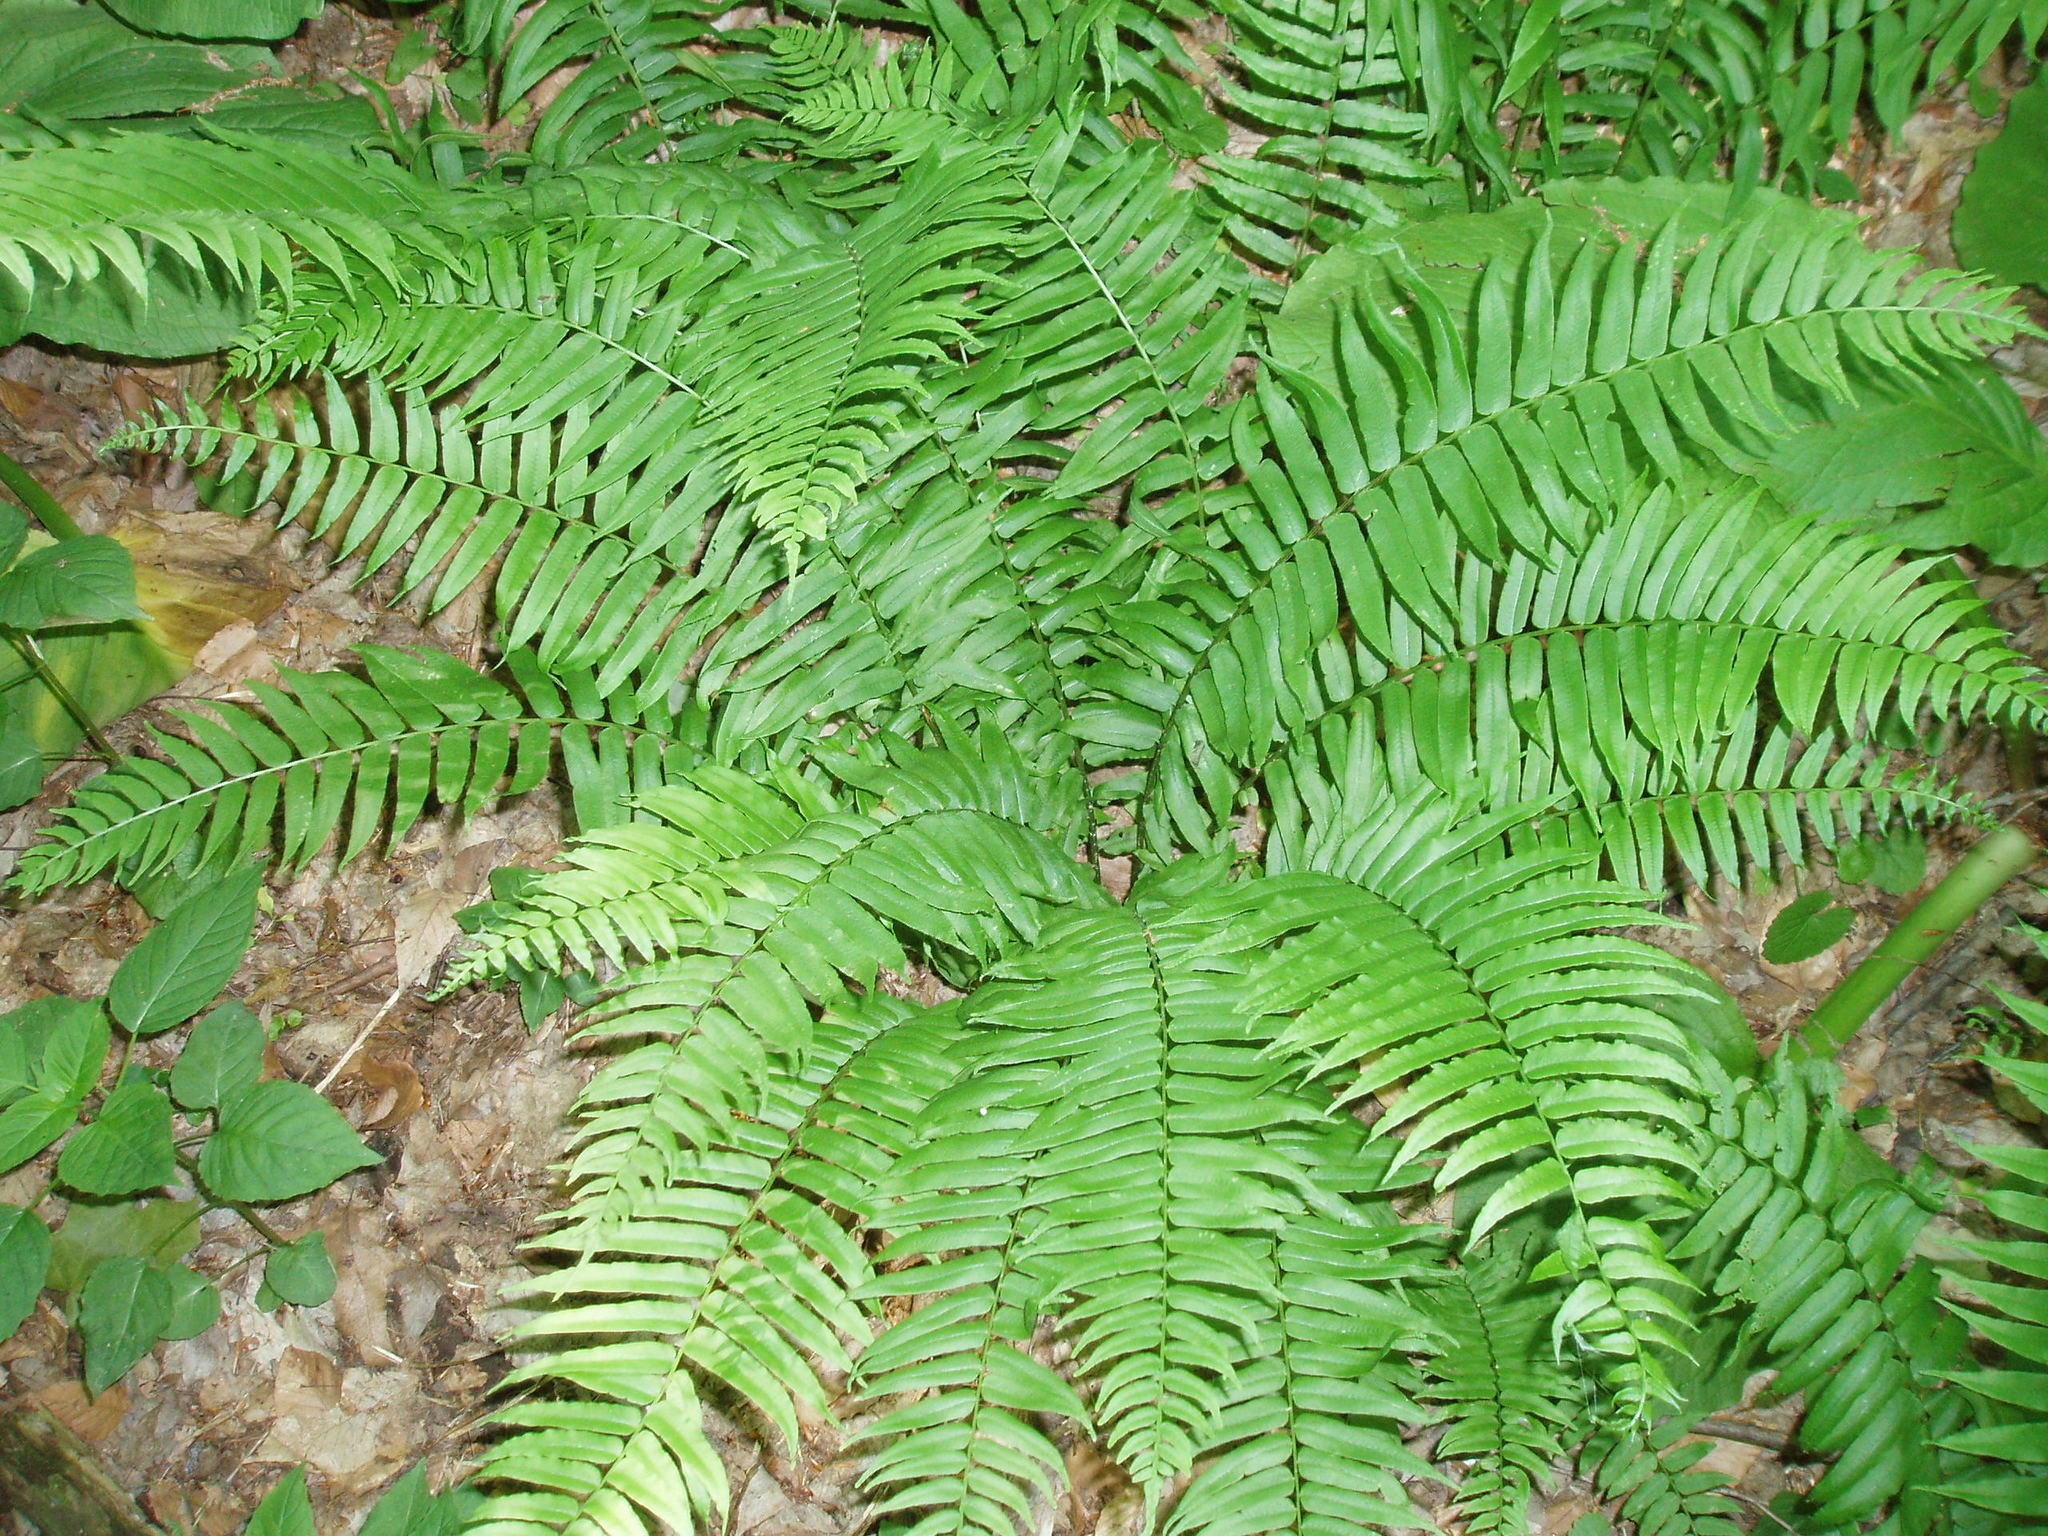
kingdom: Plantae
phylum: Tracheophyta
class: Polypodiopsida
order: Polypodiales
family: Diplaziopsidaceae
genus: Homalosorus
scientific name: Homalosorus pycnocarpos
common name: Glade fern
